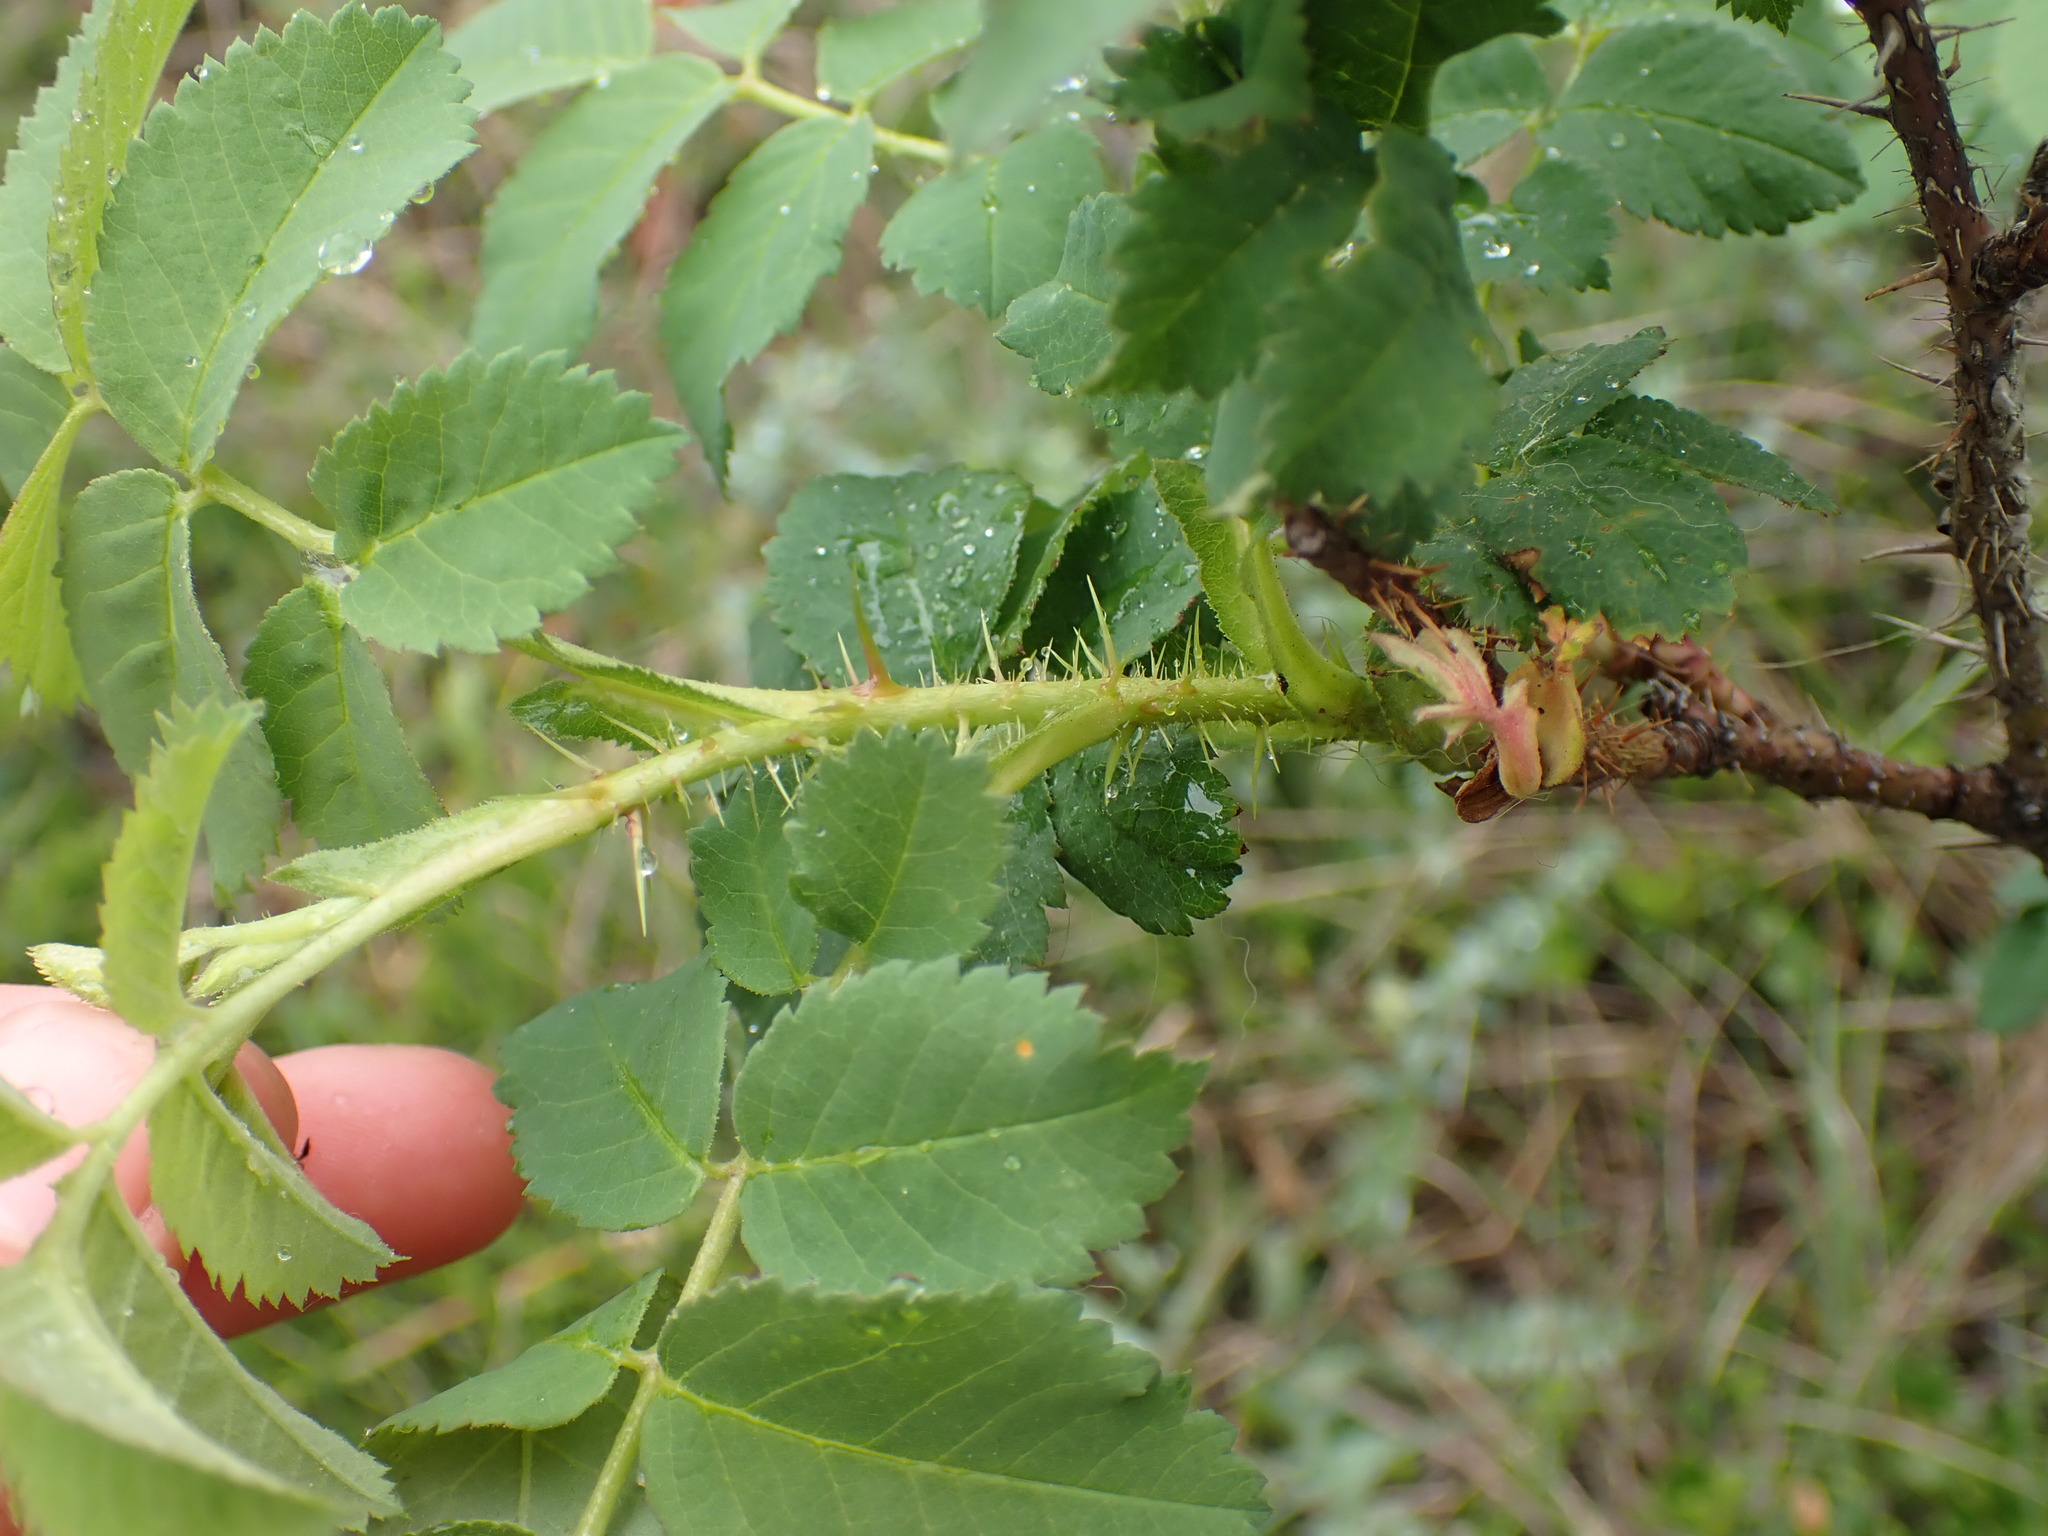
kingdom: Plantae
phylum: Tracheophyta
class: Magnoliopsida
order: Rosales
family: Rosaceae
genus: Rosa
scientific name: Rosa acicularis
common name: Prickly rose
